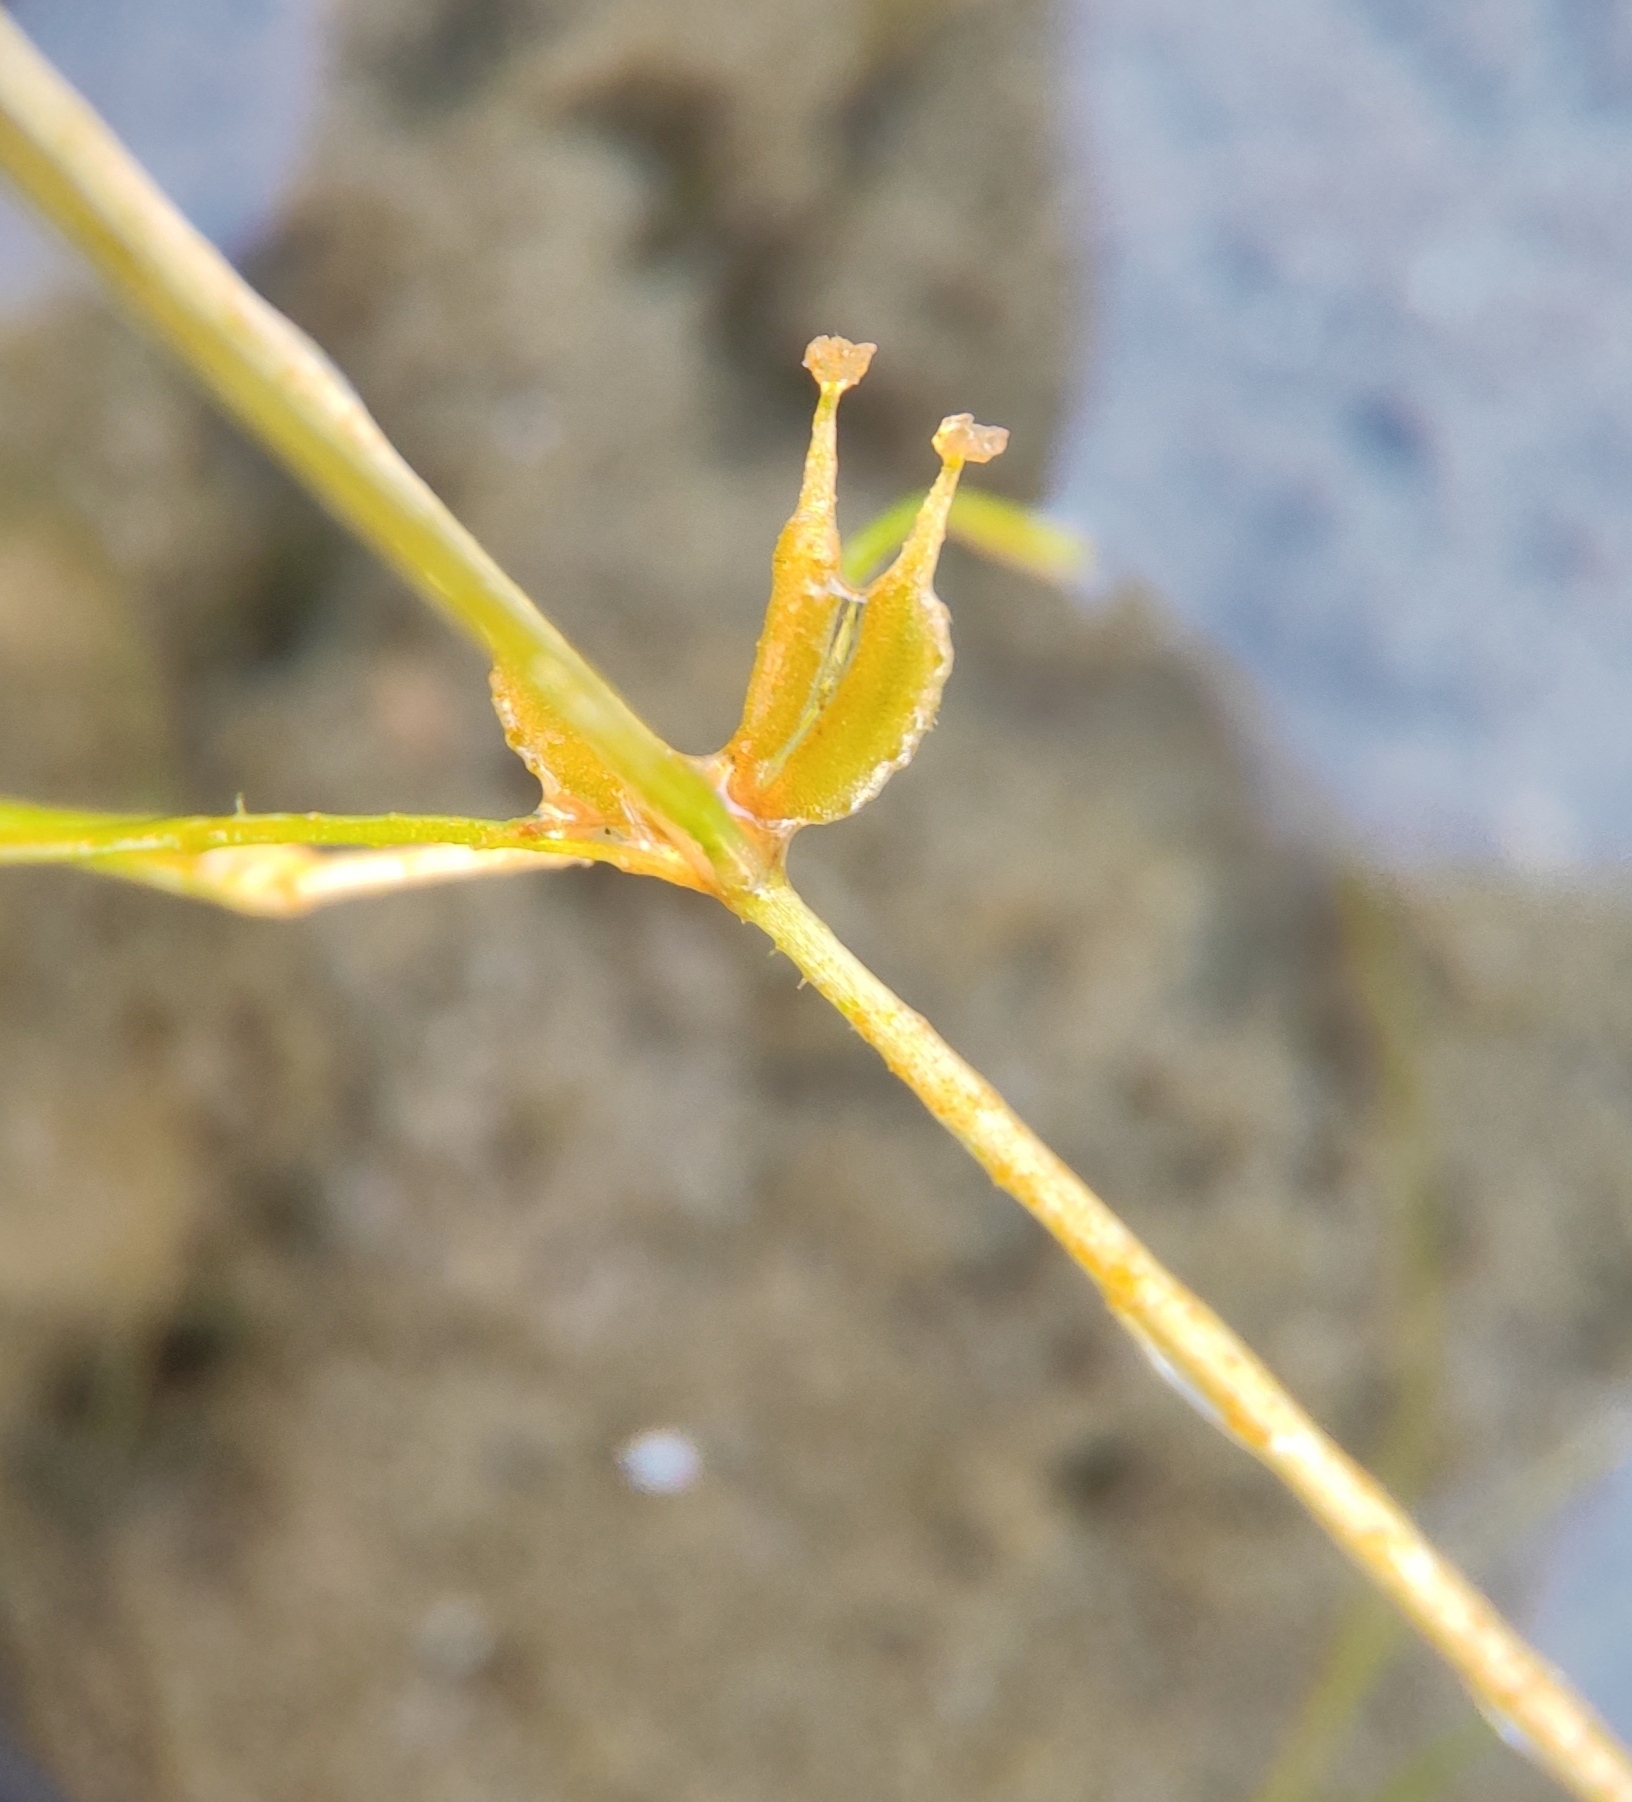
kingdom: Plantae
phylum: Tracheophyta
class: Liliopsida
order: Alismatales
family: Potamogetonaceae
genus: Zannichellia
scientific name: Zannichellia palustris
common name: Horned pondweed
